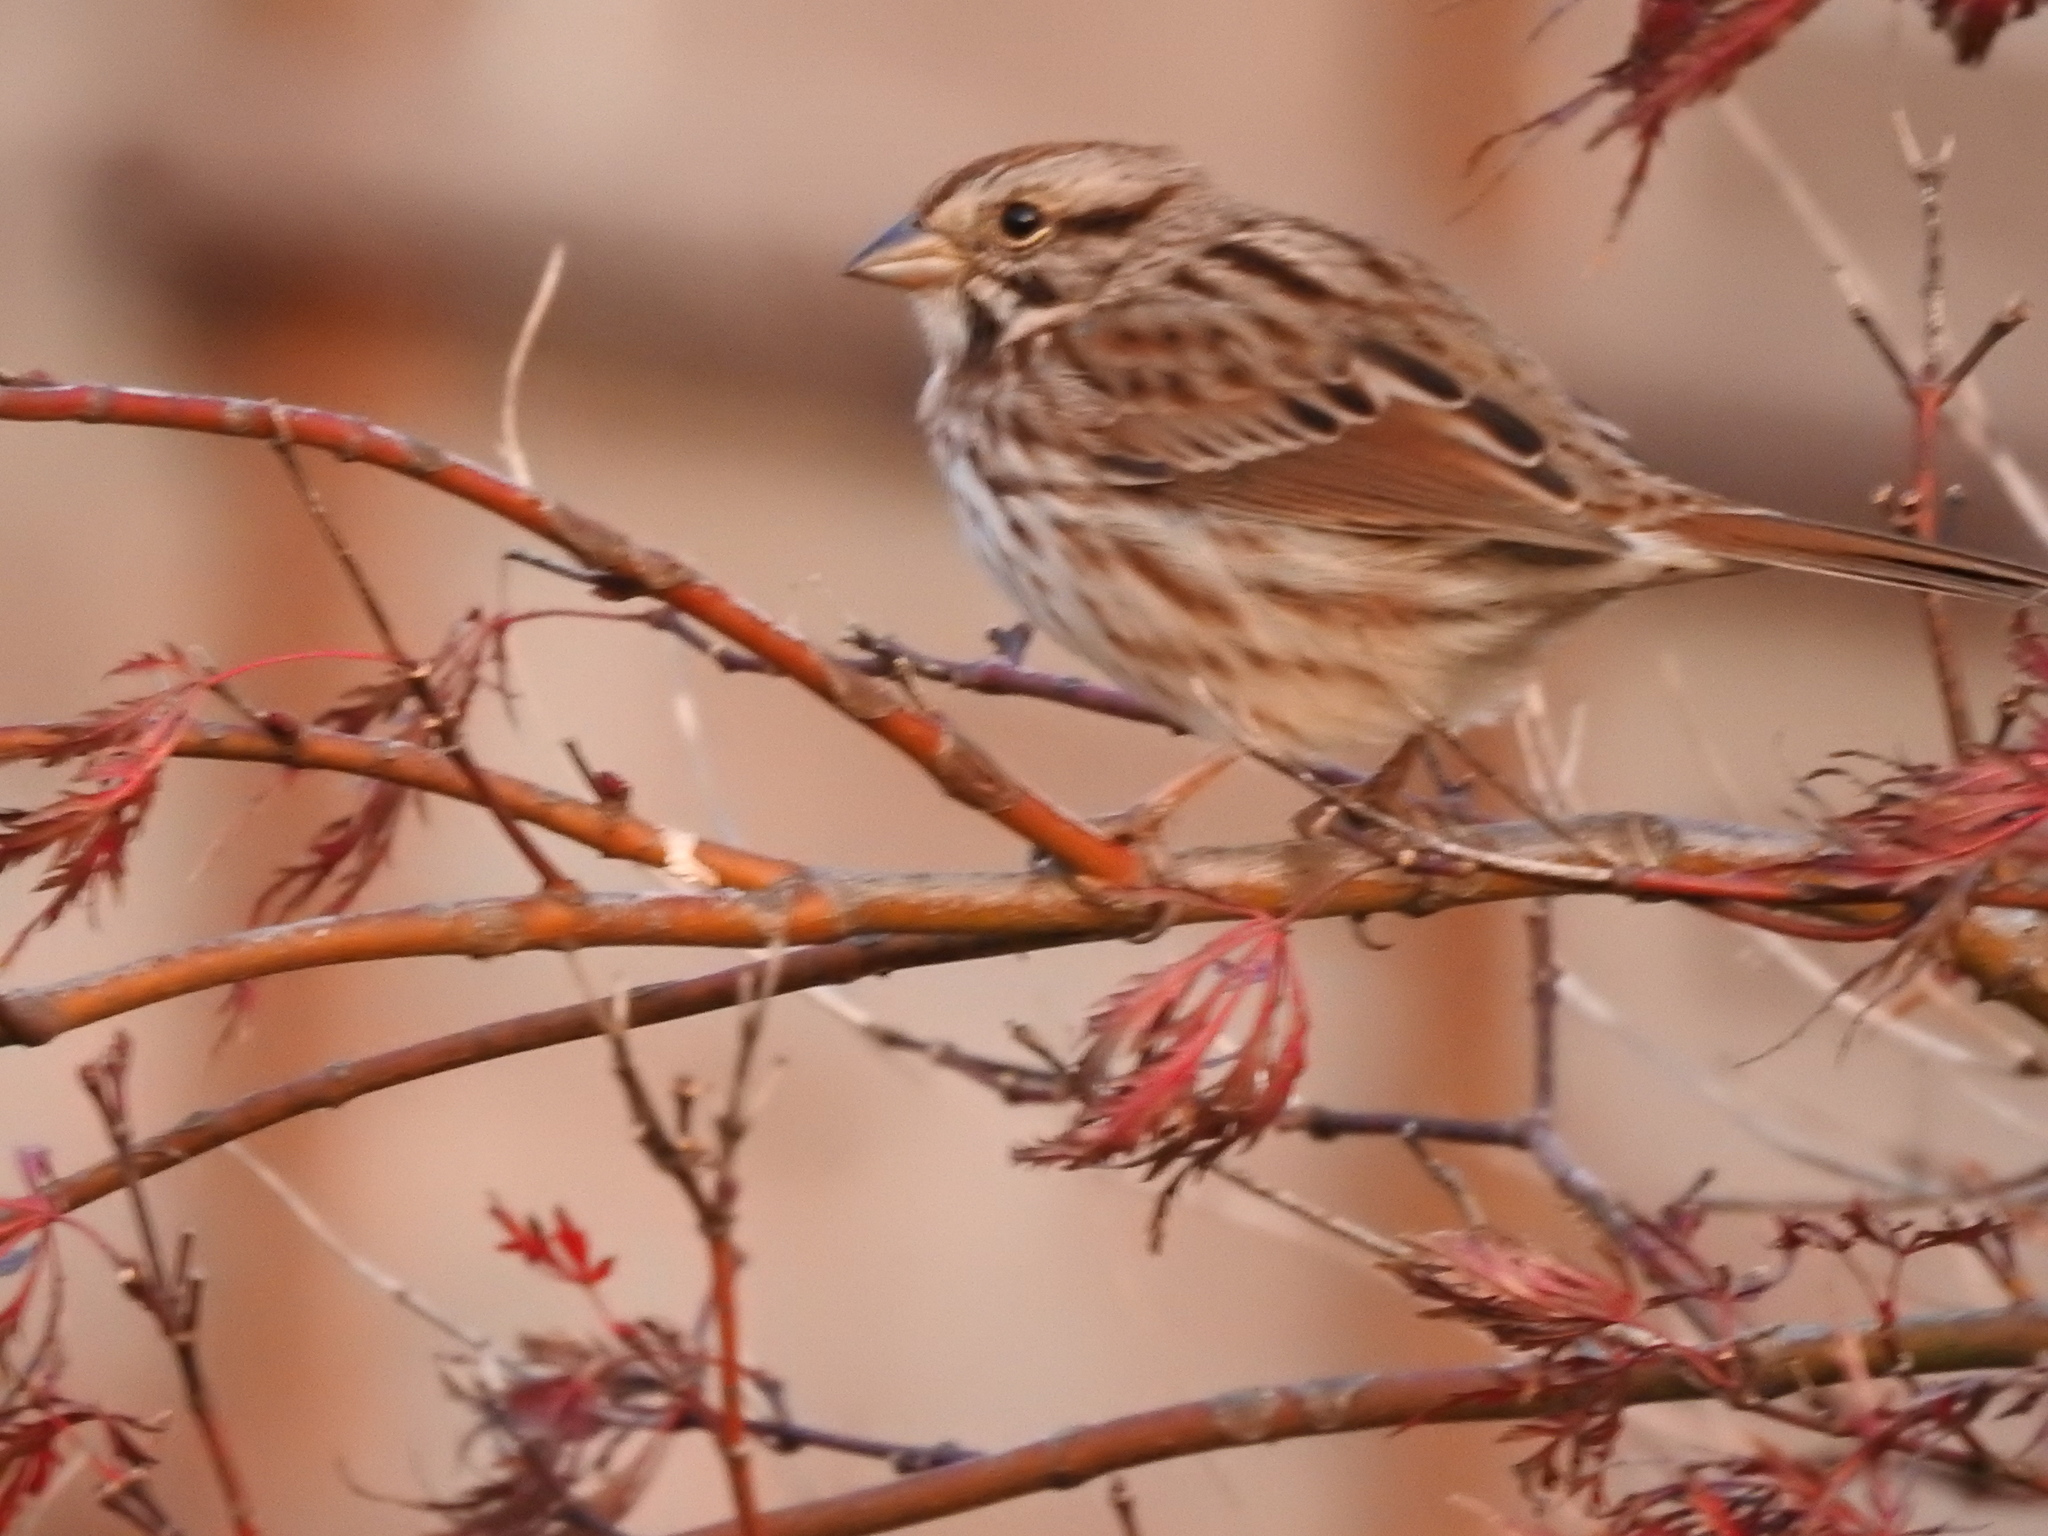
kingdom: Animalia
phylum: Chordata
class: Aves
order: Passeriformes
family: Passerellidae
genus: Melospiza
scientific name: Melospiza melodia
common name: Song sparrow
